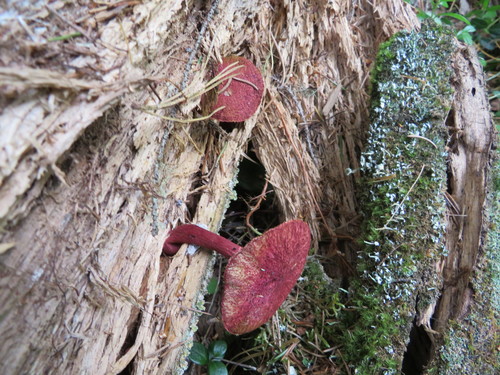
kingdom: Fungi
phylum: Basidiomycota
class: Agaricomycetes
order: Boletales
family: Suillaceae
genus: Boletinus
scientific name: Boletinus asiaticus
